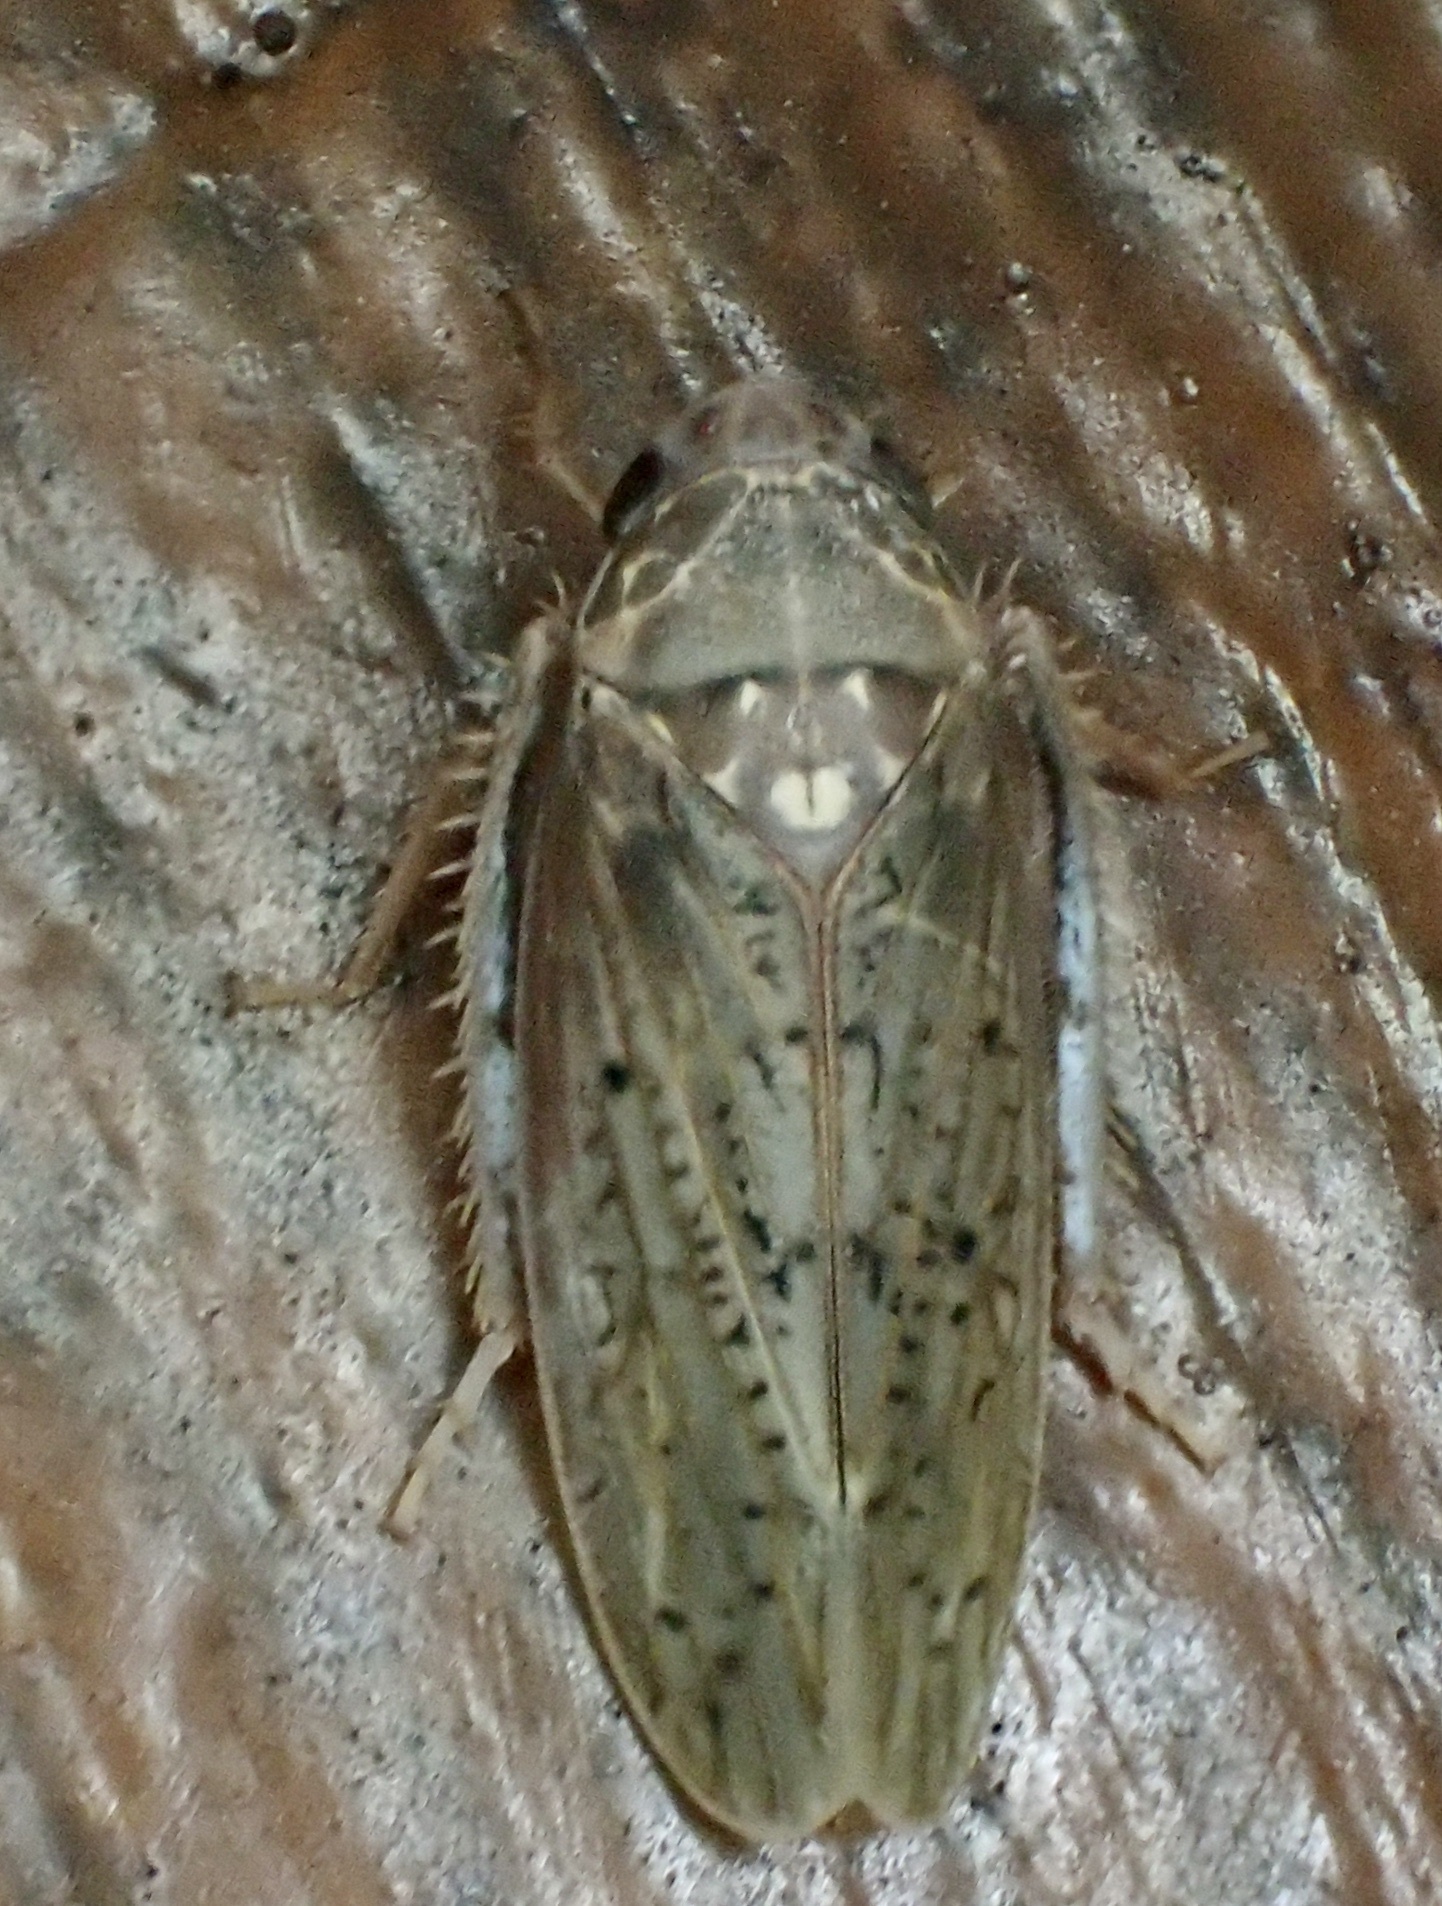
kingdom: Animalia
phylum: Arthropoda
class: Insecta
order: Hemiptera
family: Cicadellidae
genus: Ponana
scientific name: Ponana rubida
